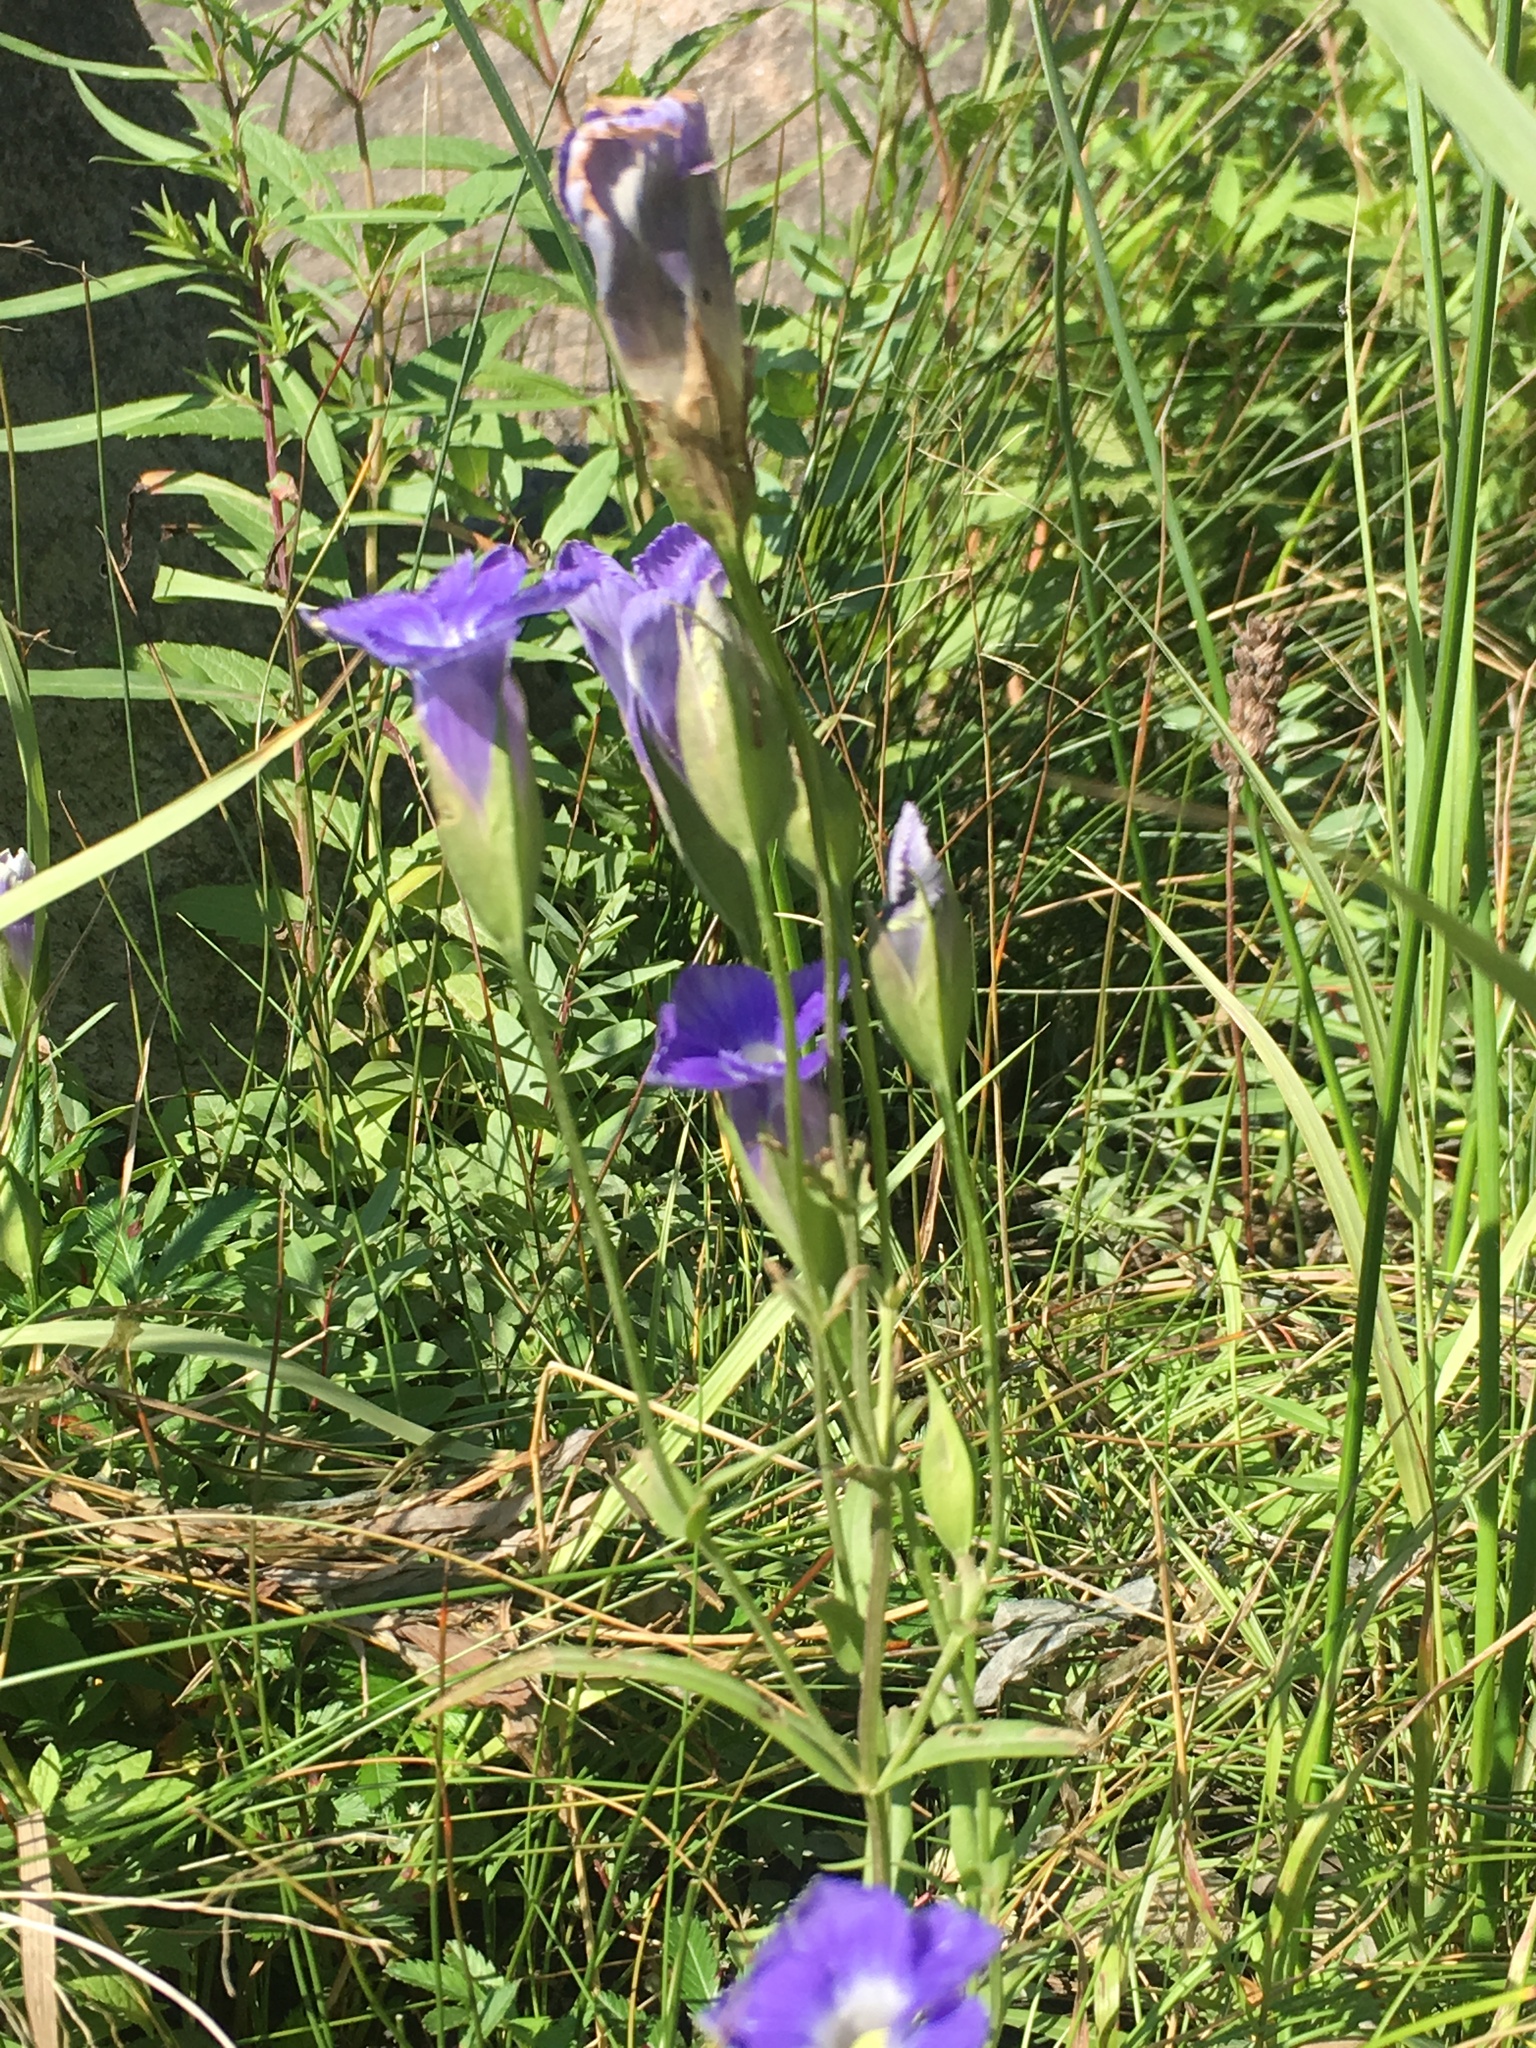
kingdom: Plantae
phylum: Tracheophyta
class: Magnoliopsida
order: Gentianales
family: Gentianaceae
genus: Gentianopsis
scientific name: Gentianopsis victorinii
